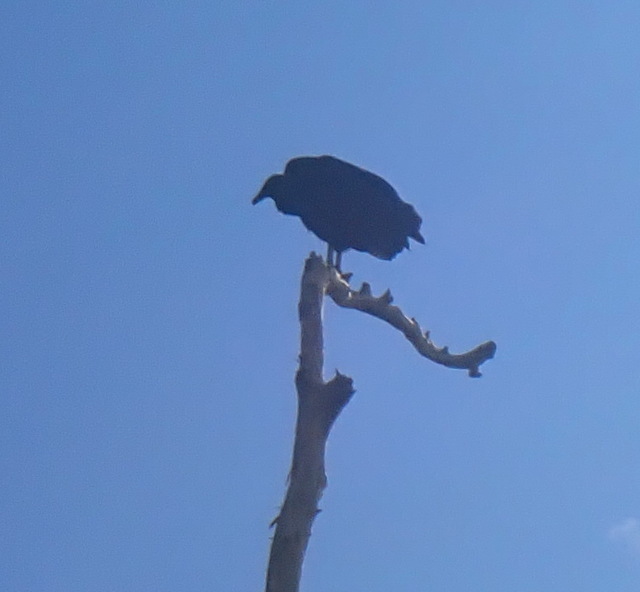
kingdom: Animalia
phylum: Chordata
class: Aves
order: Accipitriformes
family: Cathartidae
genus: Coragyps
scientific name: Coragyps atratus
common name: Black vulture
